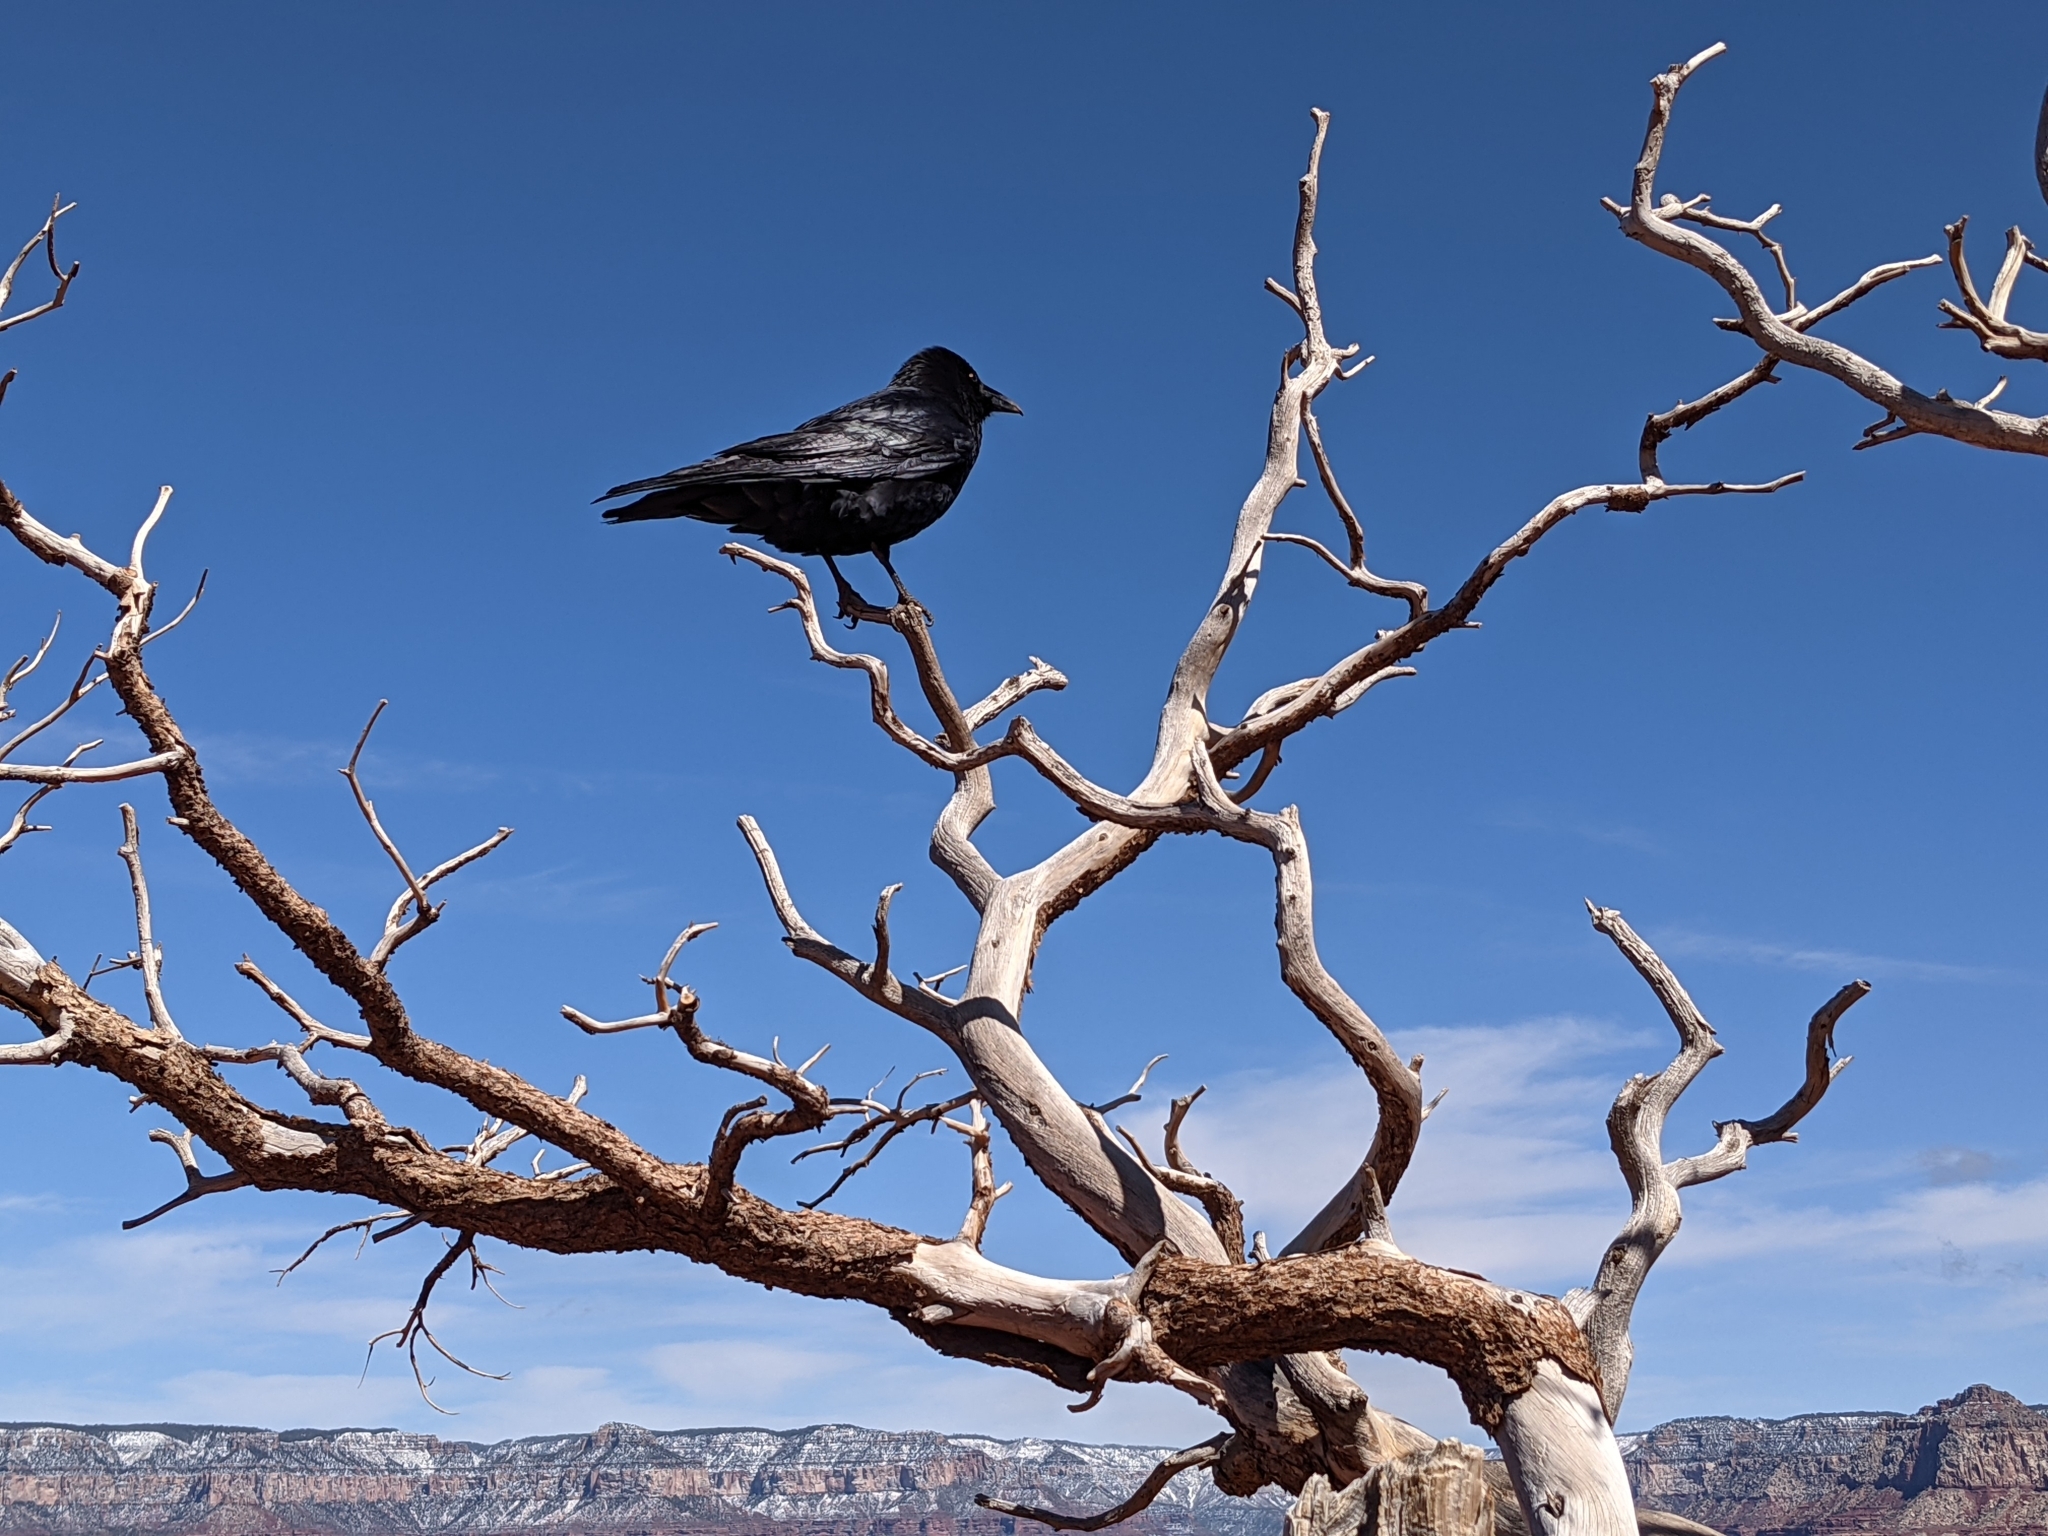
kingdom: Animalia
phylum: Chordata
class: Aves
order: Passeriformes
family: Corvidae
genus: Corvus
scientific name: Corvus corax
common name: Common raven
